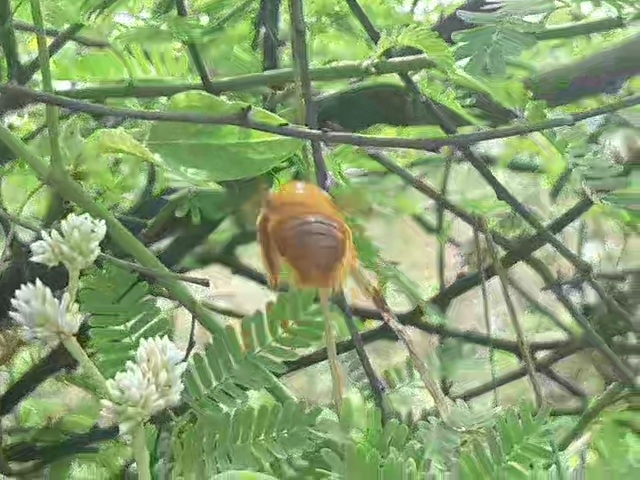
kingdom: Animalia
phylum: Arthropoda
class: Insecta
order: Hymenoptera
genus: Neoxylocopa
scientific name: Neoxylocopa
